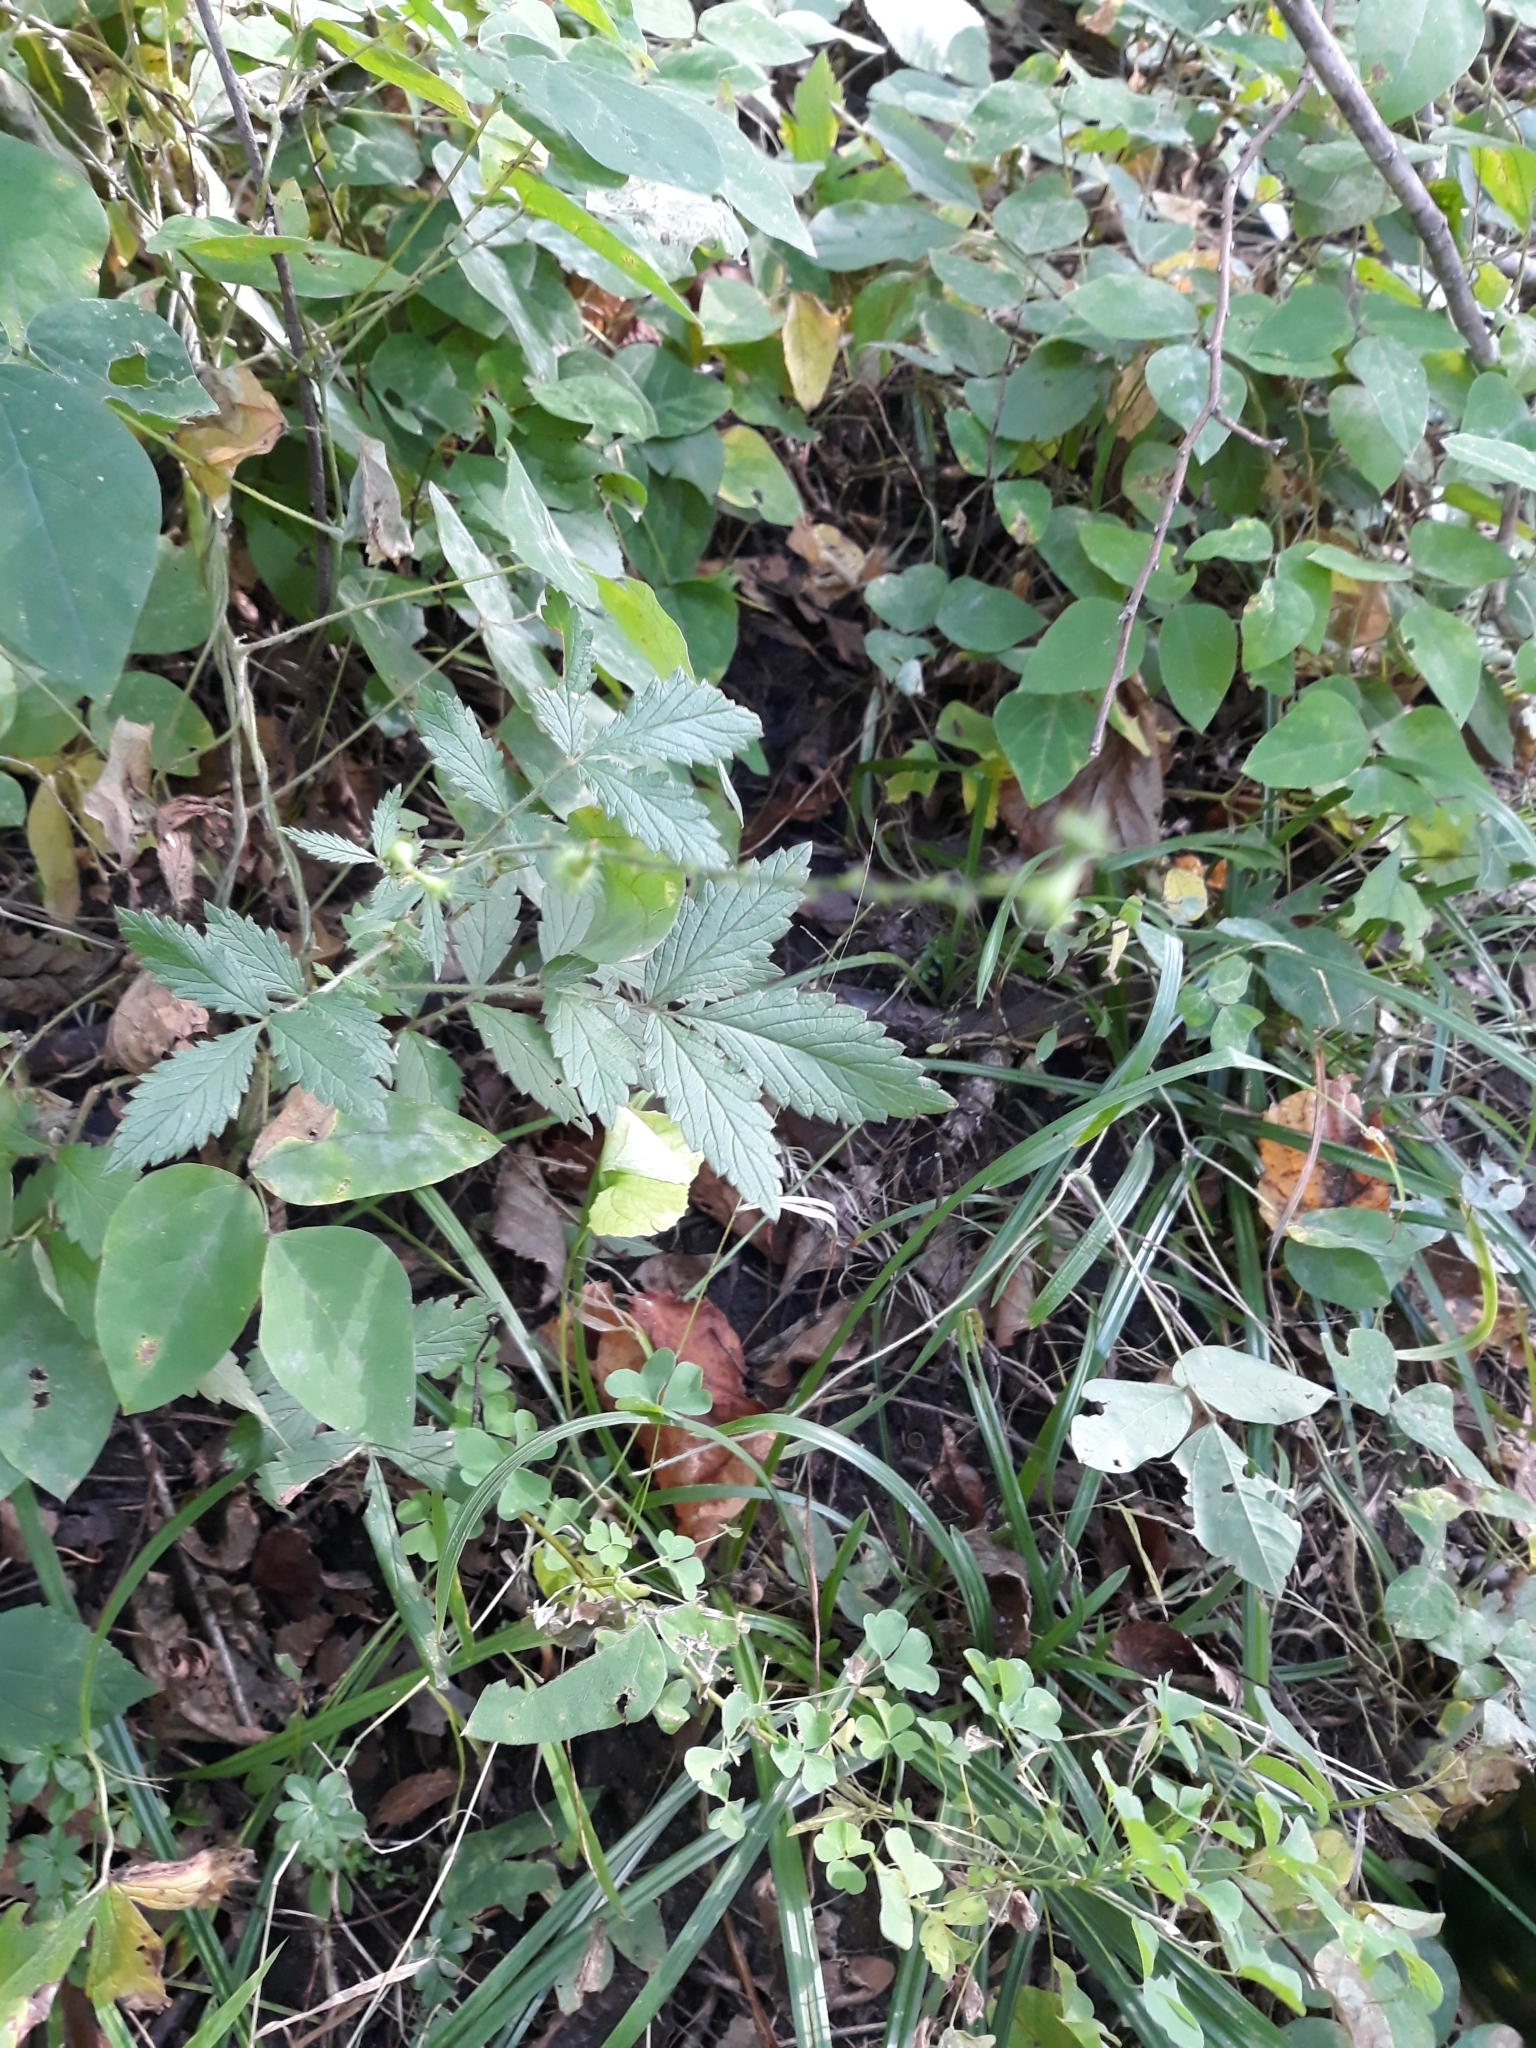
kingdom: Plantae
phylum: Tracheophyta
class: Magnoliopsida
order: Rosales
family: Rosaceae
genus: Agrimonia
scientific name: Agrimonia gryposepala
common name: Common agrimony
